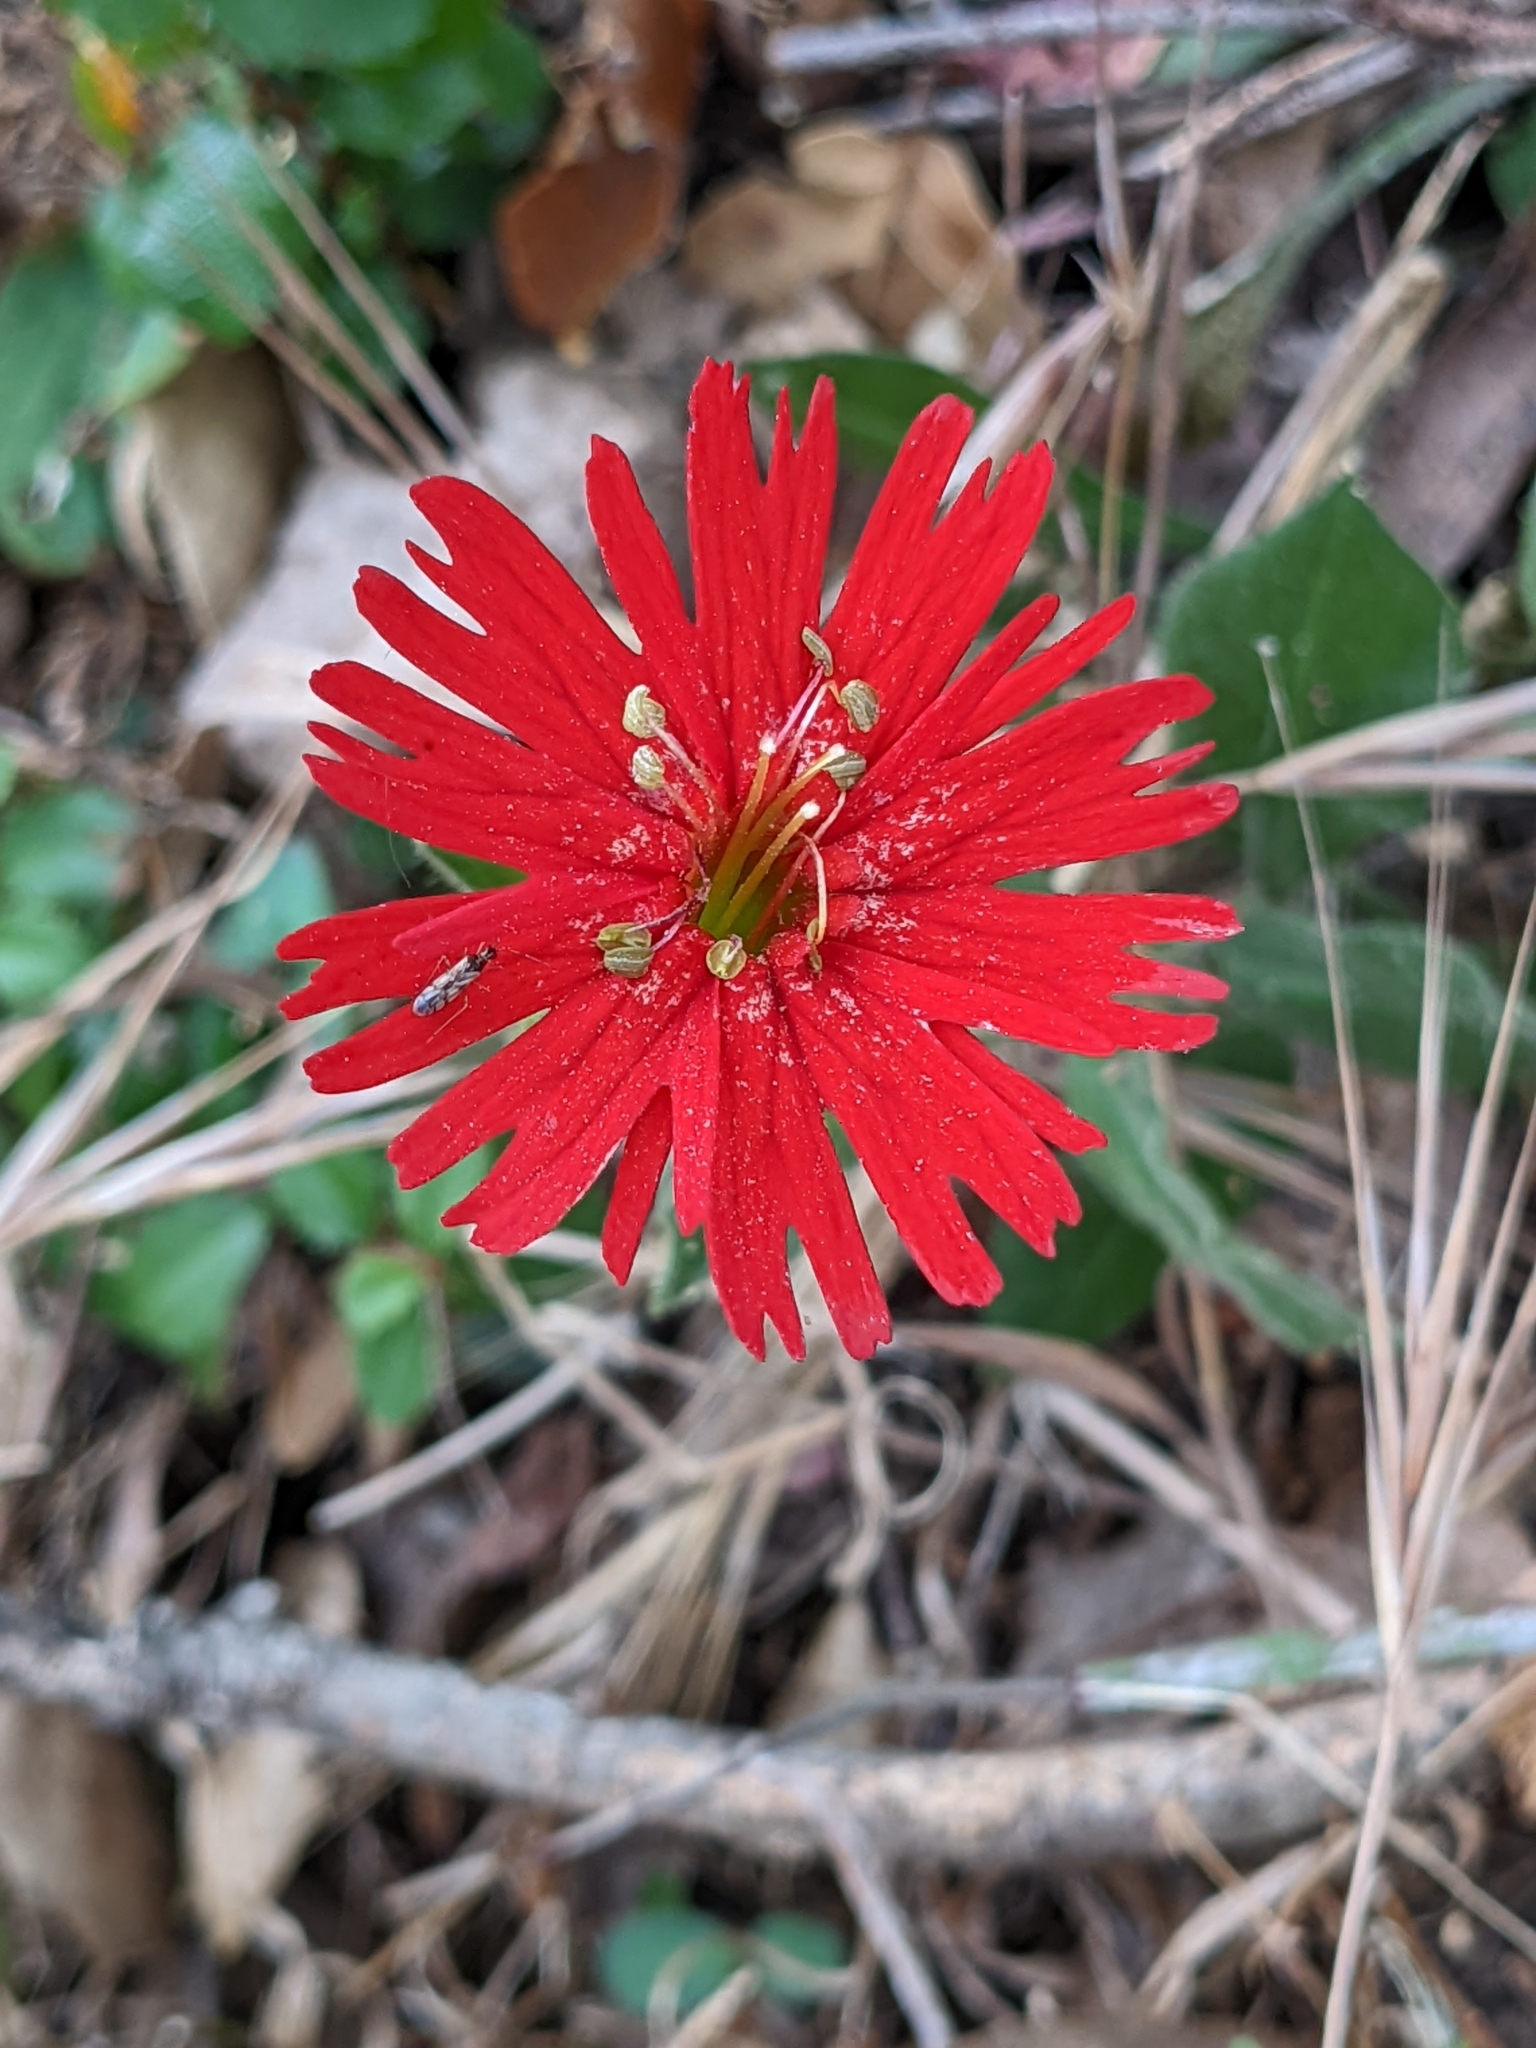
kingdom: Plantae
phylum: Tracheophyta
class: Magnoliopsida
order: Caryophyllales
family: Caryophyllaceae
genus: Silene
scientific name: Silene laciniata
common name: Indian-pink
